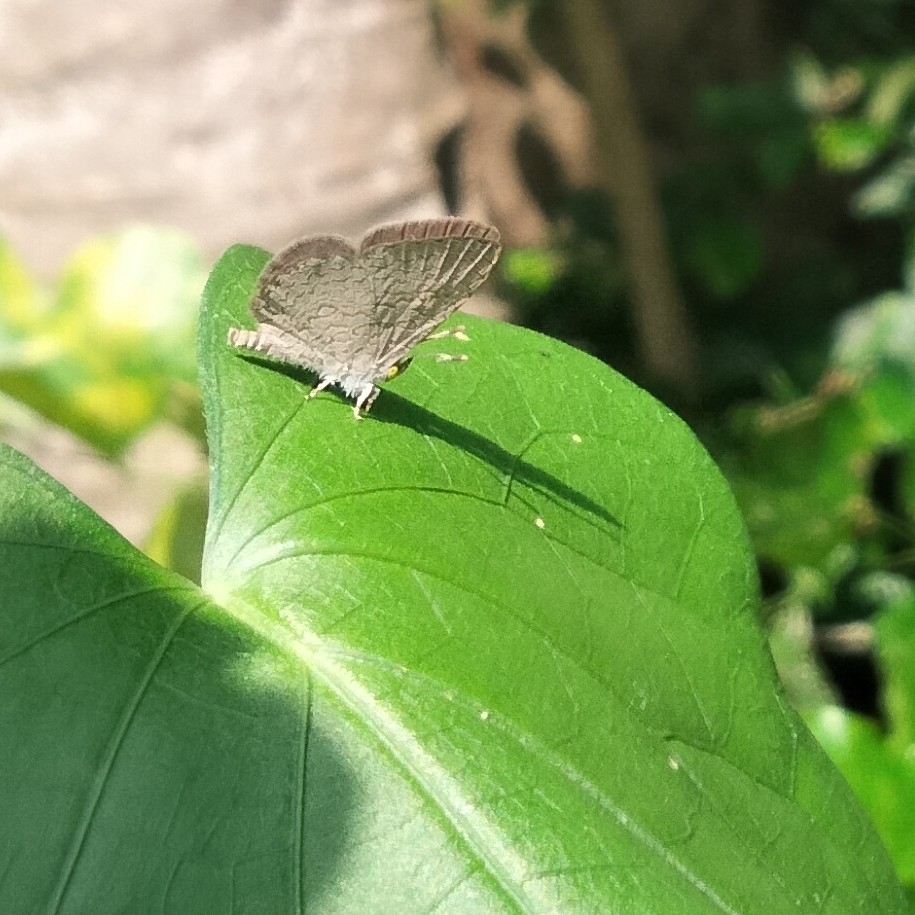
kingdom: Animalia
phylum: Arthropoda
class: Insecta
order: Lepidoptera
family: Lycaenidae
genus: Spalgis
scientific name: Spalgis epius
